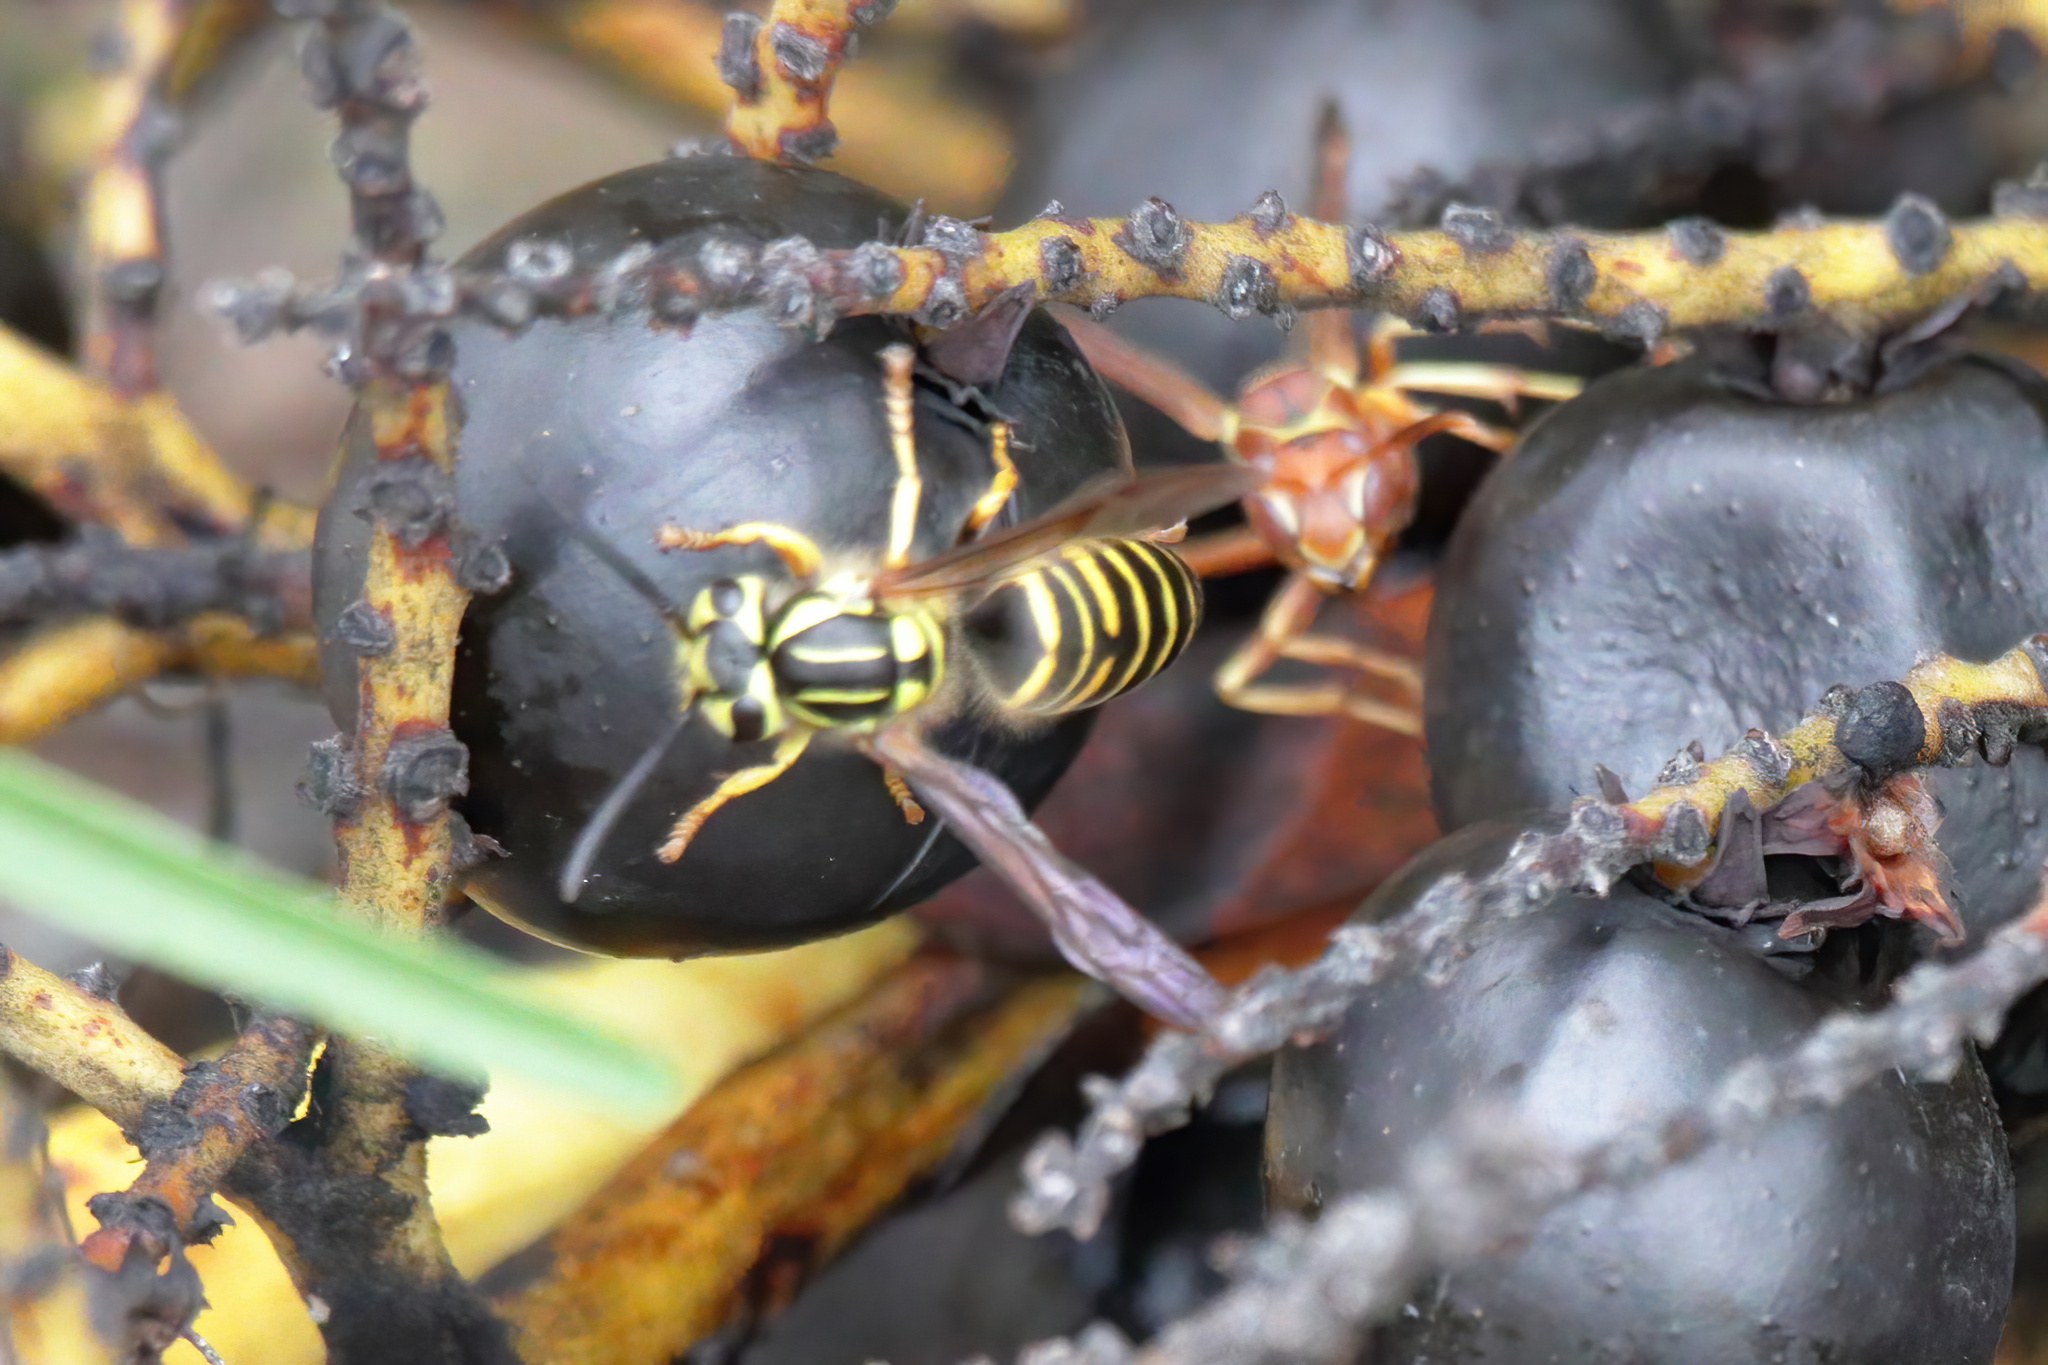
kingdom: Animalia
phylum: Arthropoda
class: Insecta
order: Hymenoptera
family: Vespidae
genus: Vespula
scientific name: Vespula squamosa
